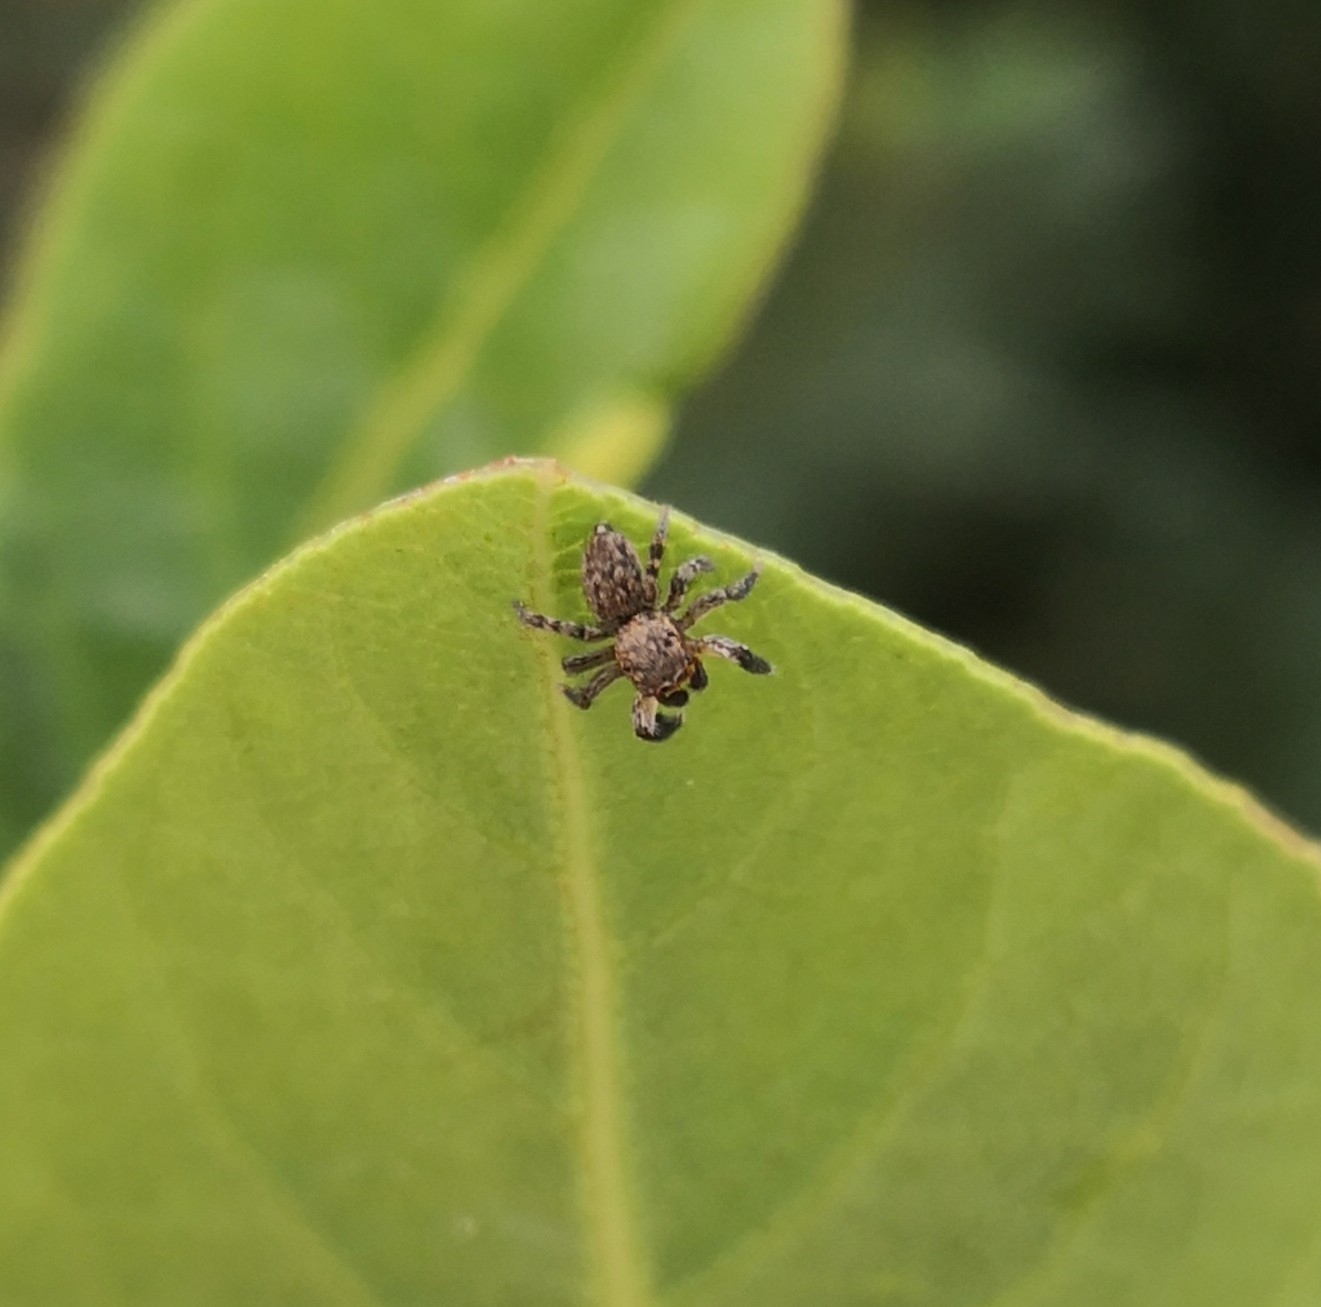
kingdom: Animalia
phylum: Arthropoda
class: Arachnida
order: Araneae
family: Salticidae
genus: Euophrys
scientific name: Euophrys rufibarbis
